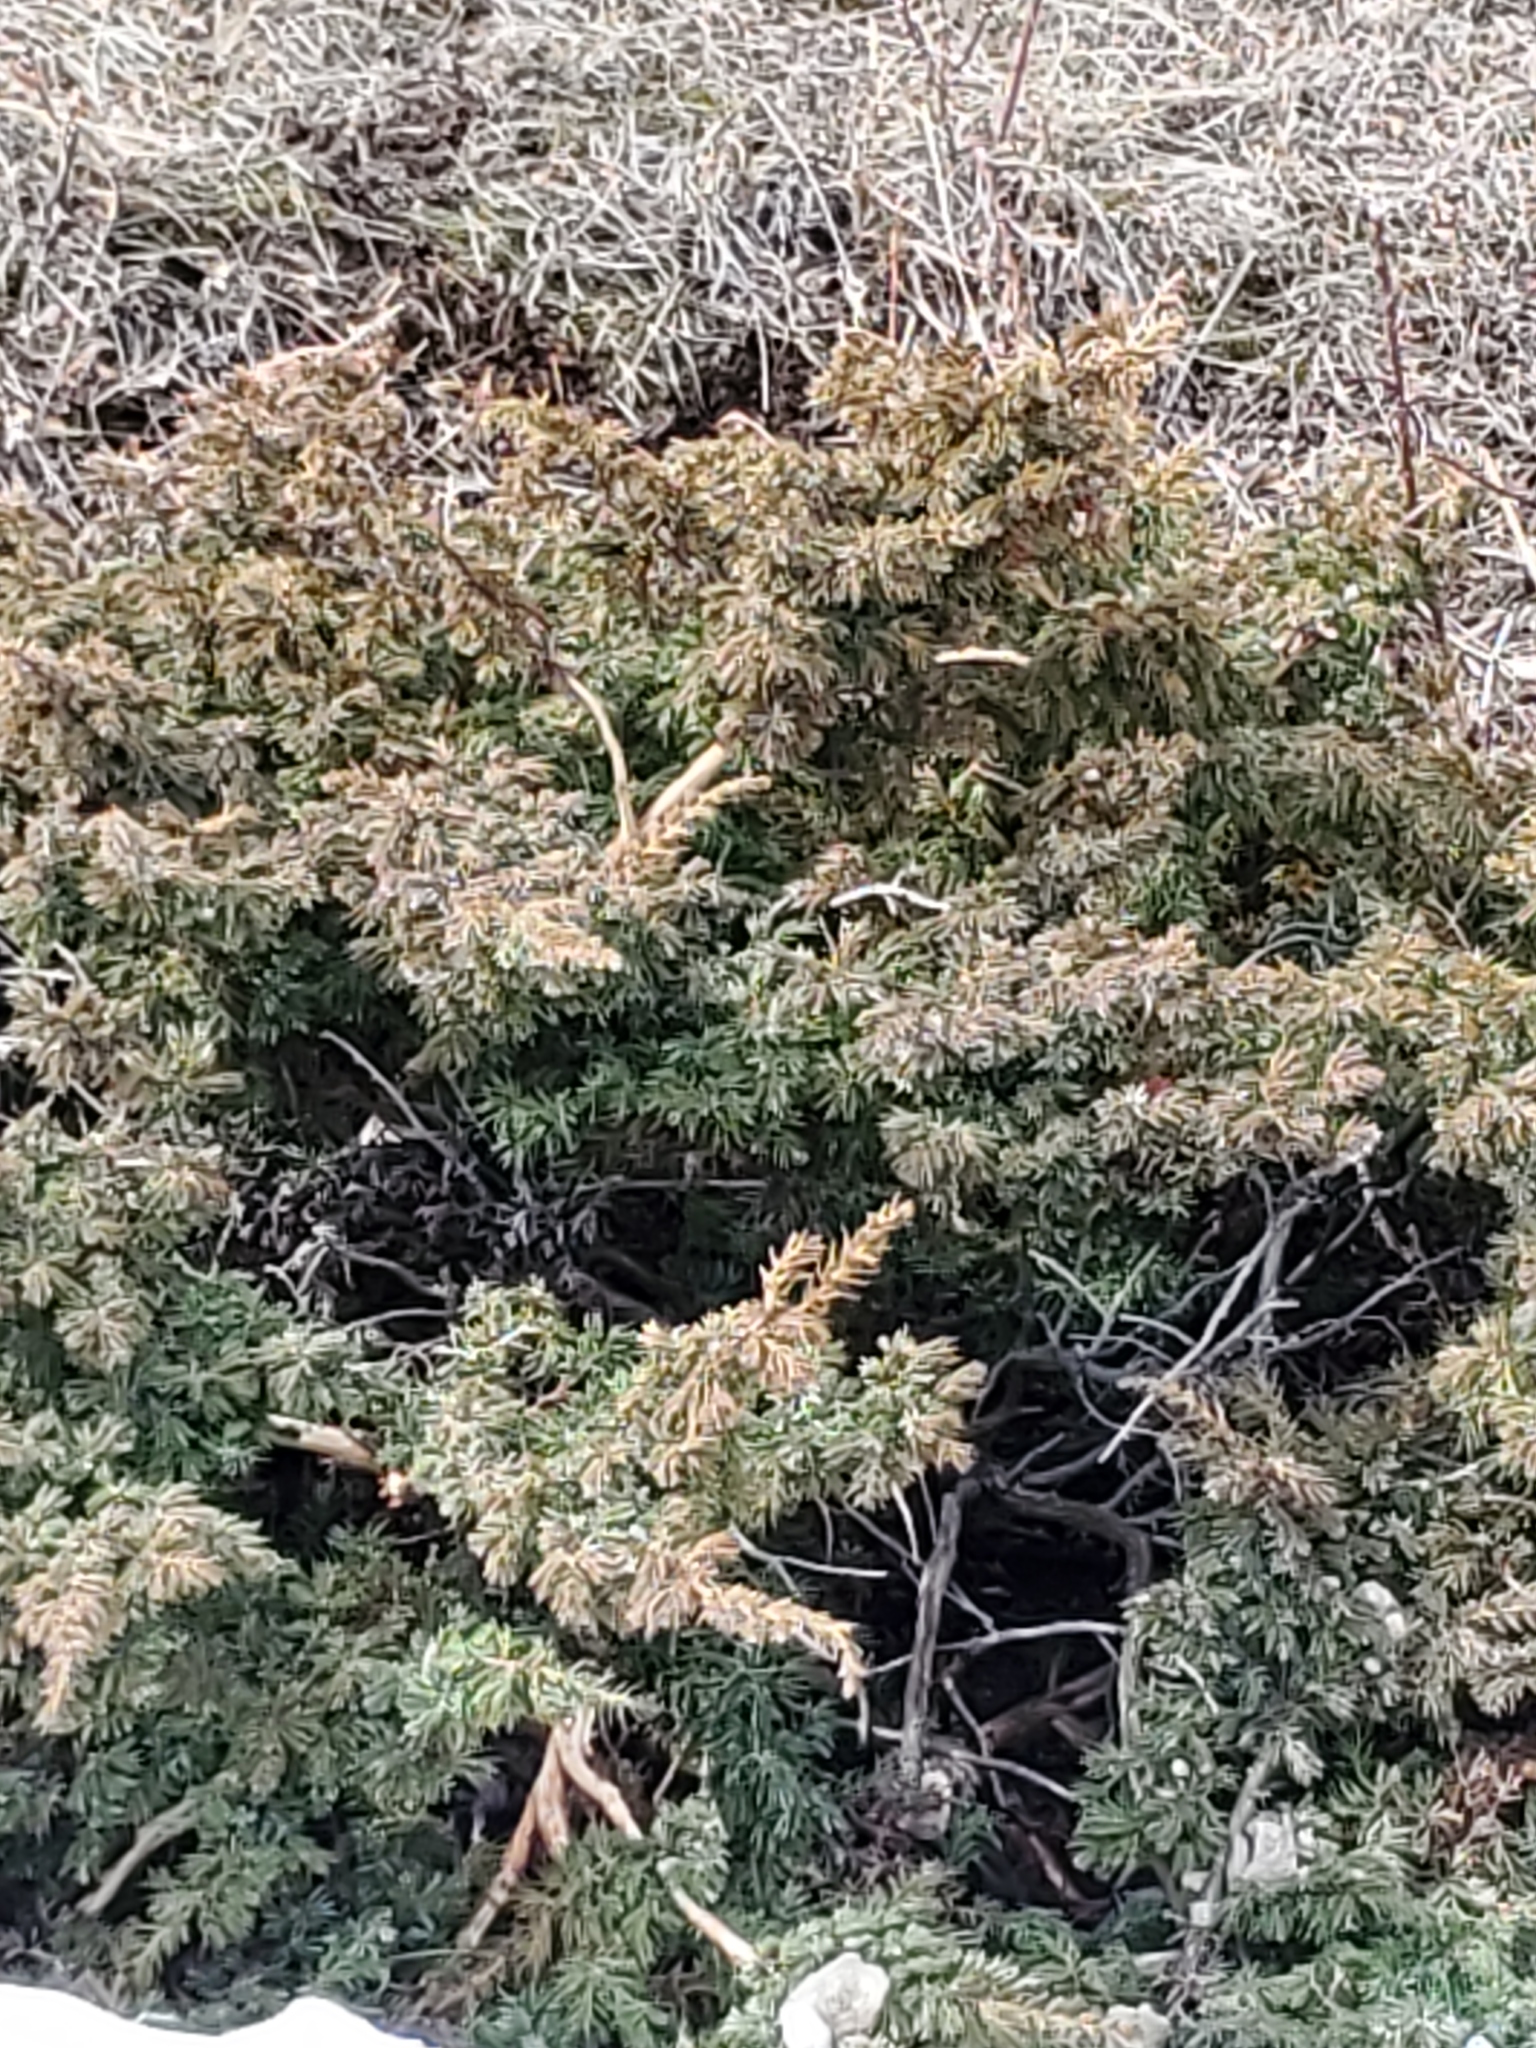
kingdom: Plantae
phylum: Tracheophyta
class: Pinopsida
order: Pinales
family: Cupressaceae
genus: Juniperus
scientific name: Juniperus communis
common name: Common juniper
